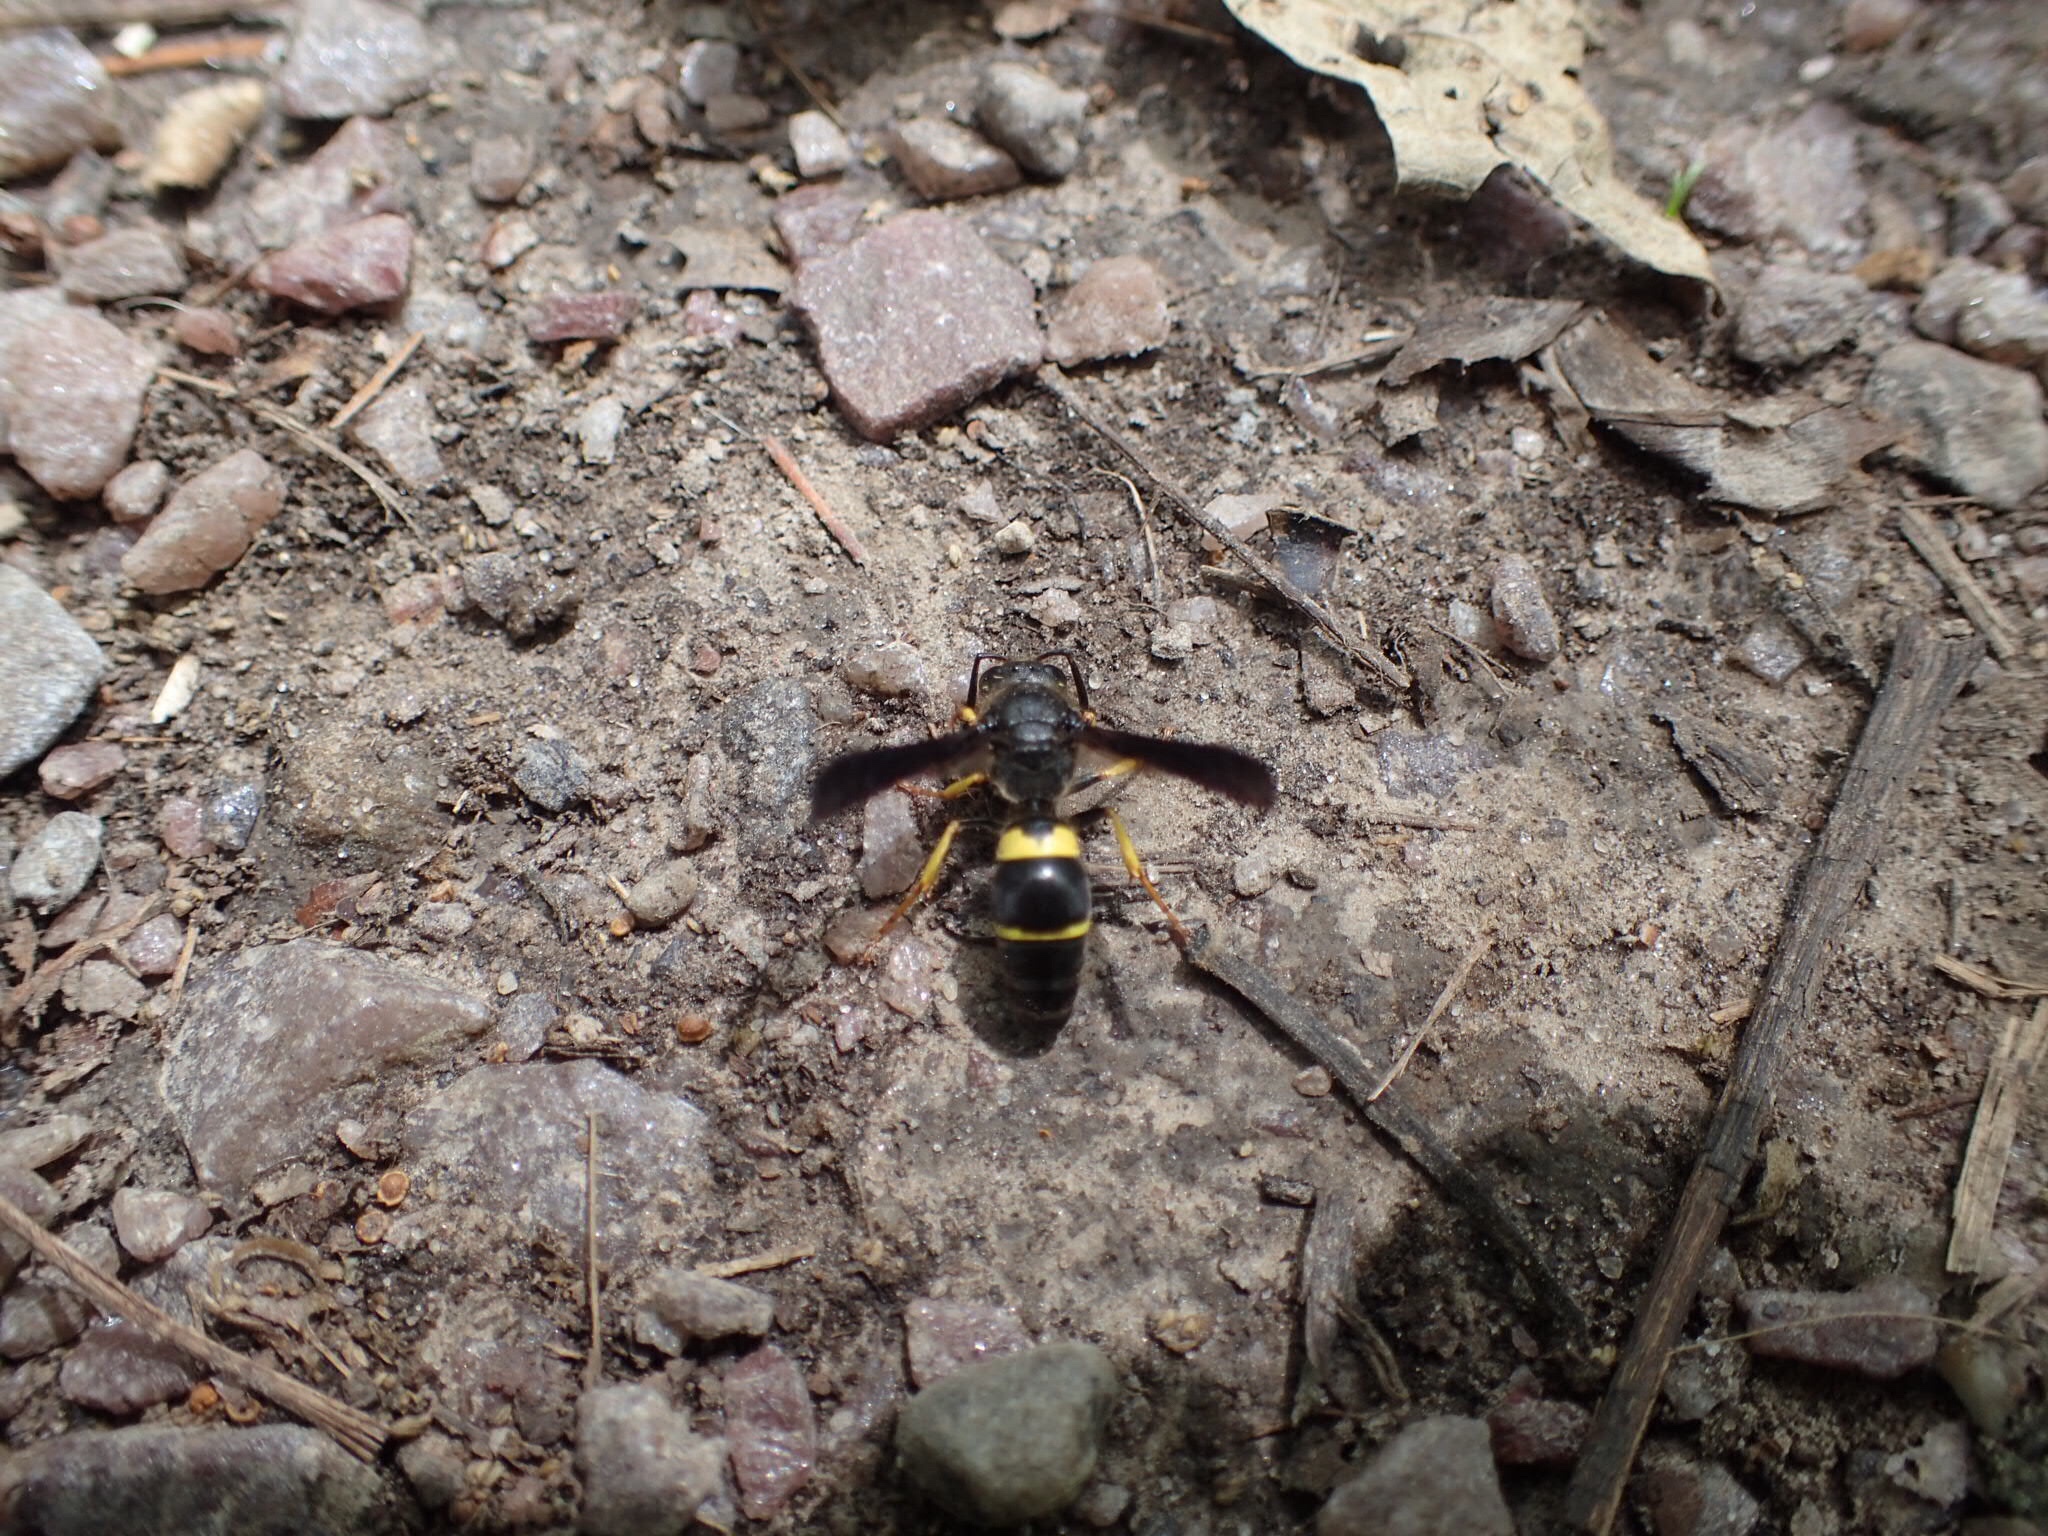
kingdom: Animalia
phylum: Arthropoda
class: Insecta
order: Hymenoptera
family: Vespidae
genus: Ancistrocerus
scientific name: Ancistrocerus spinolae
